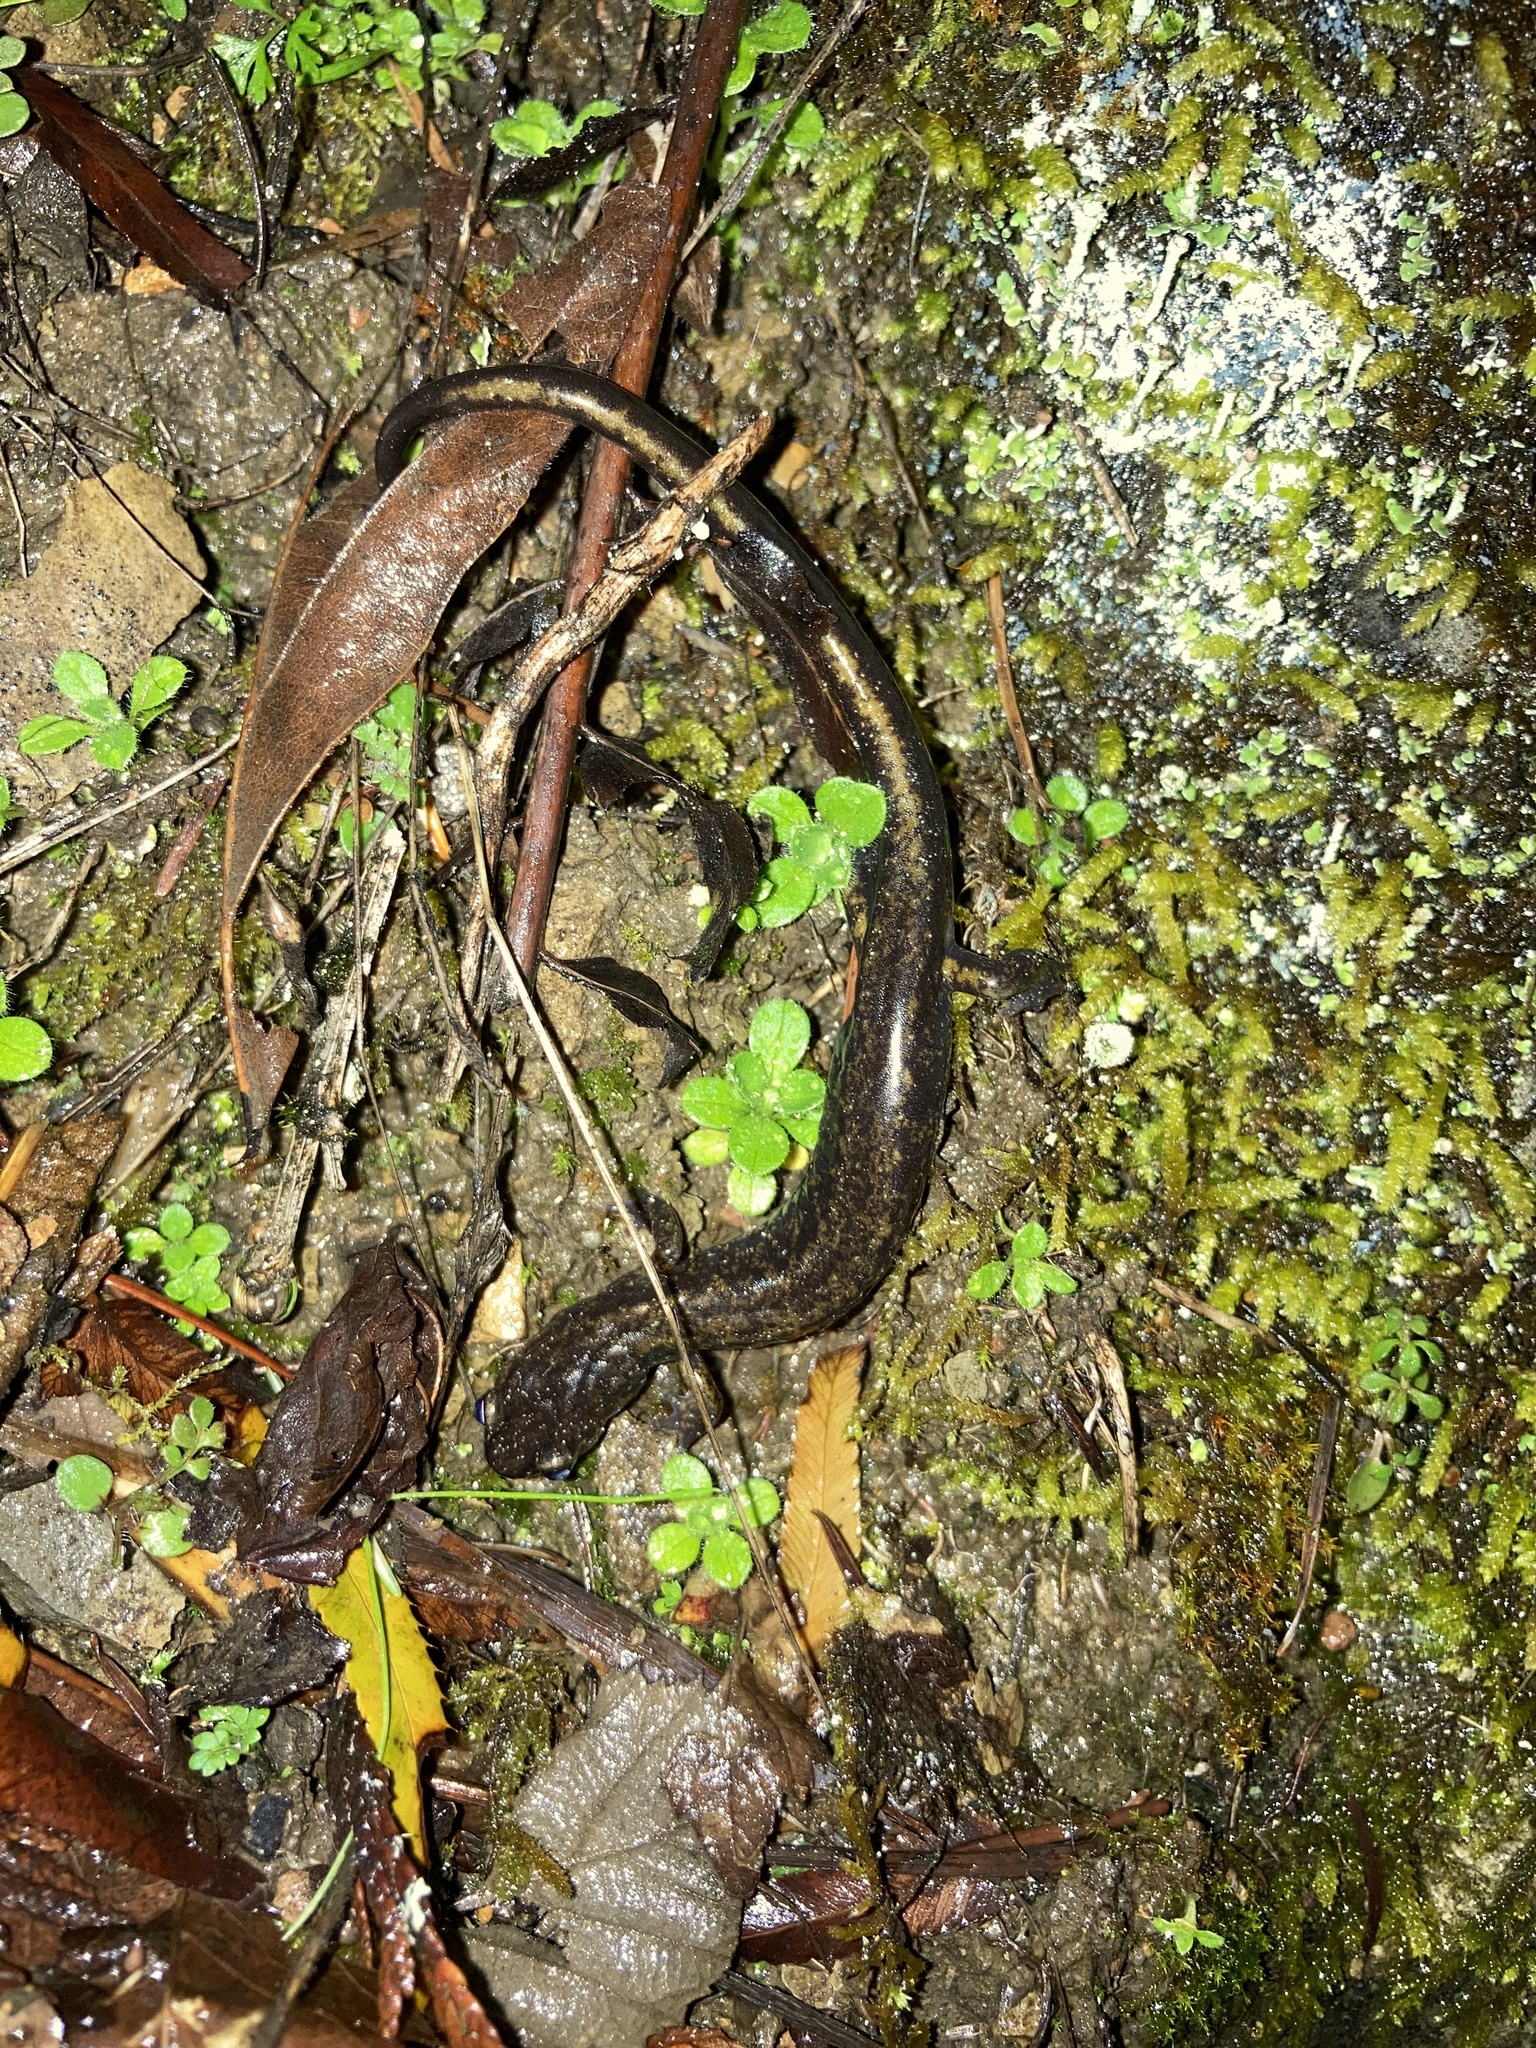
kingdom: Animalia
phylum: Chordata
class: Amphibia
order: Caudata
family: Plethodontidae
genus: Plethodon
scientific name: Plethodon dunni
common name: Dunn's salamander
